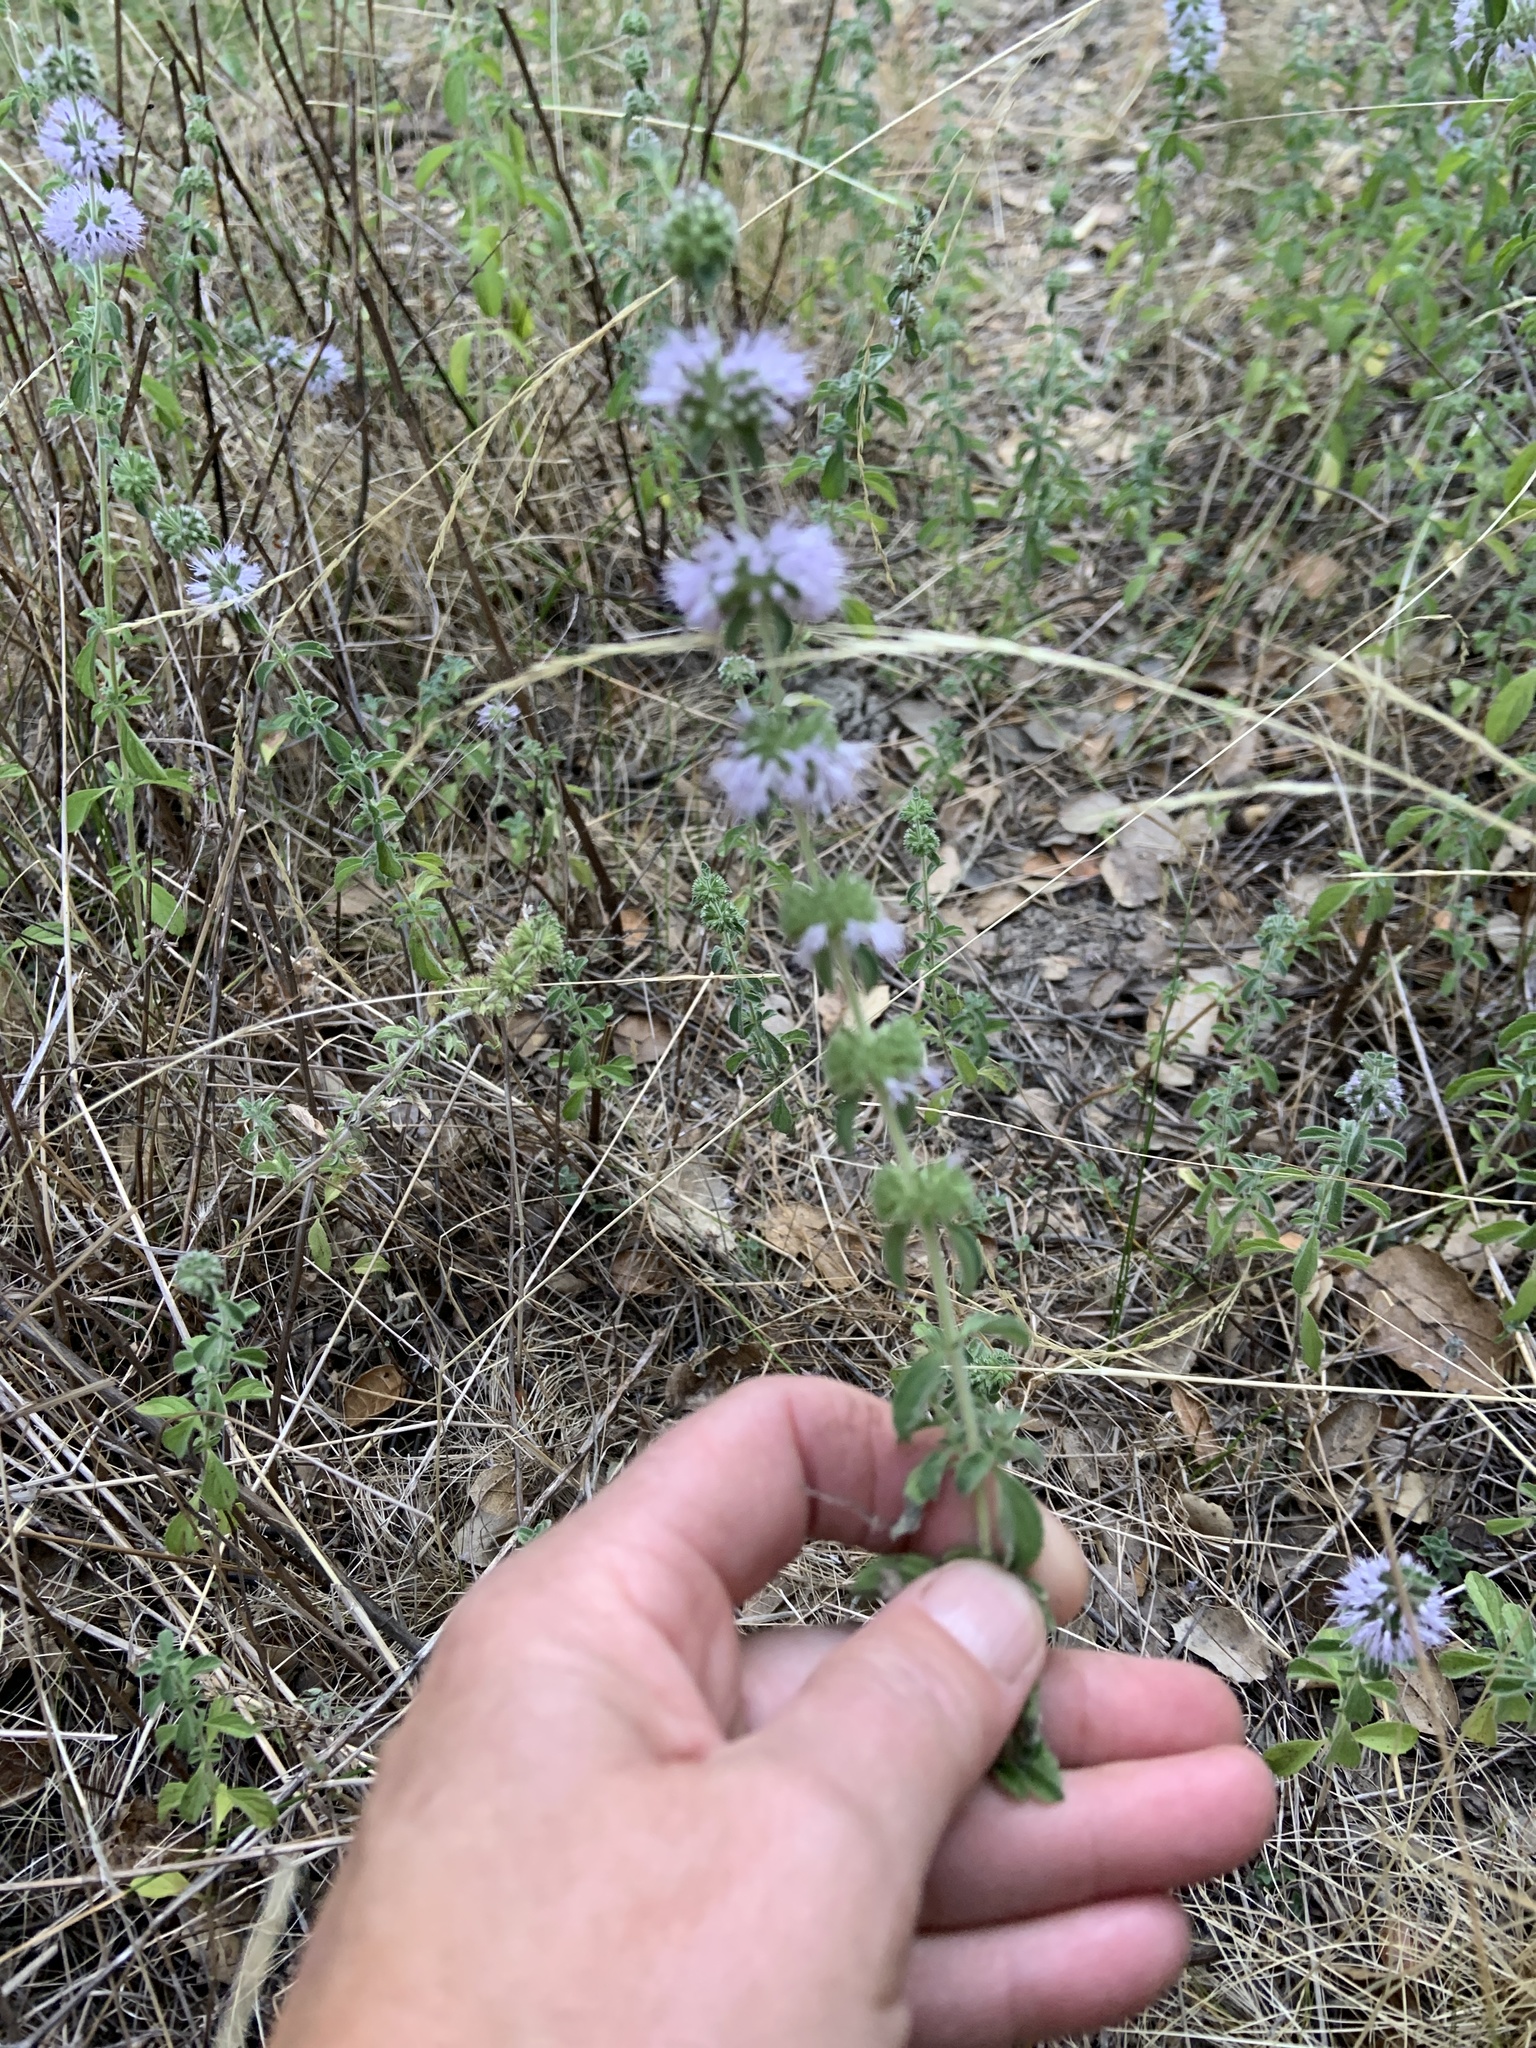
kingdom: Plantae
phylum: Tracheophyta
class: Magnoliopsida
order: Lamiales
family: Lamiaceae
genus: Mentha
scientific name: Mentha pulegium
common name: Pennyroyal
